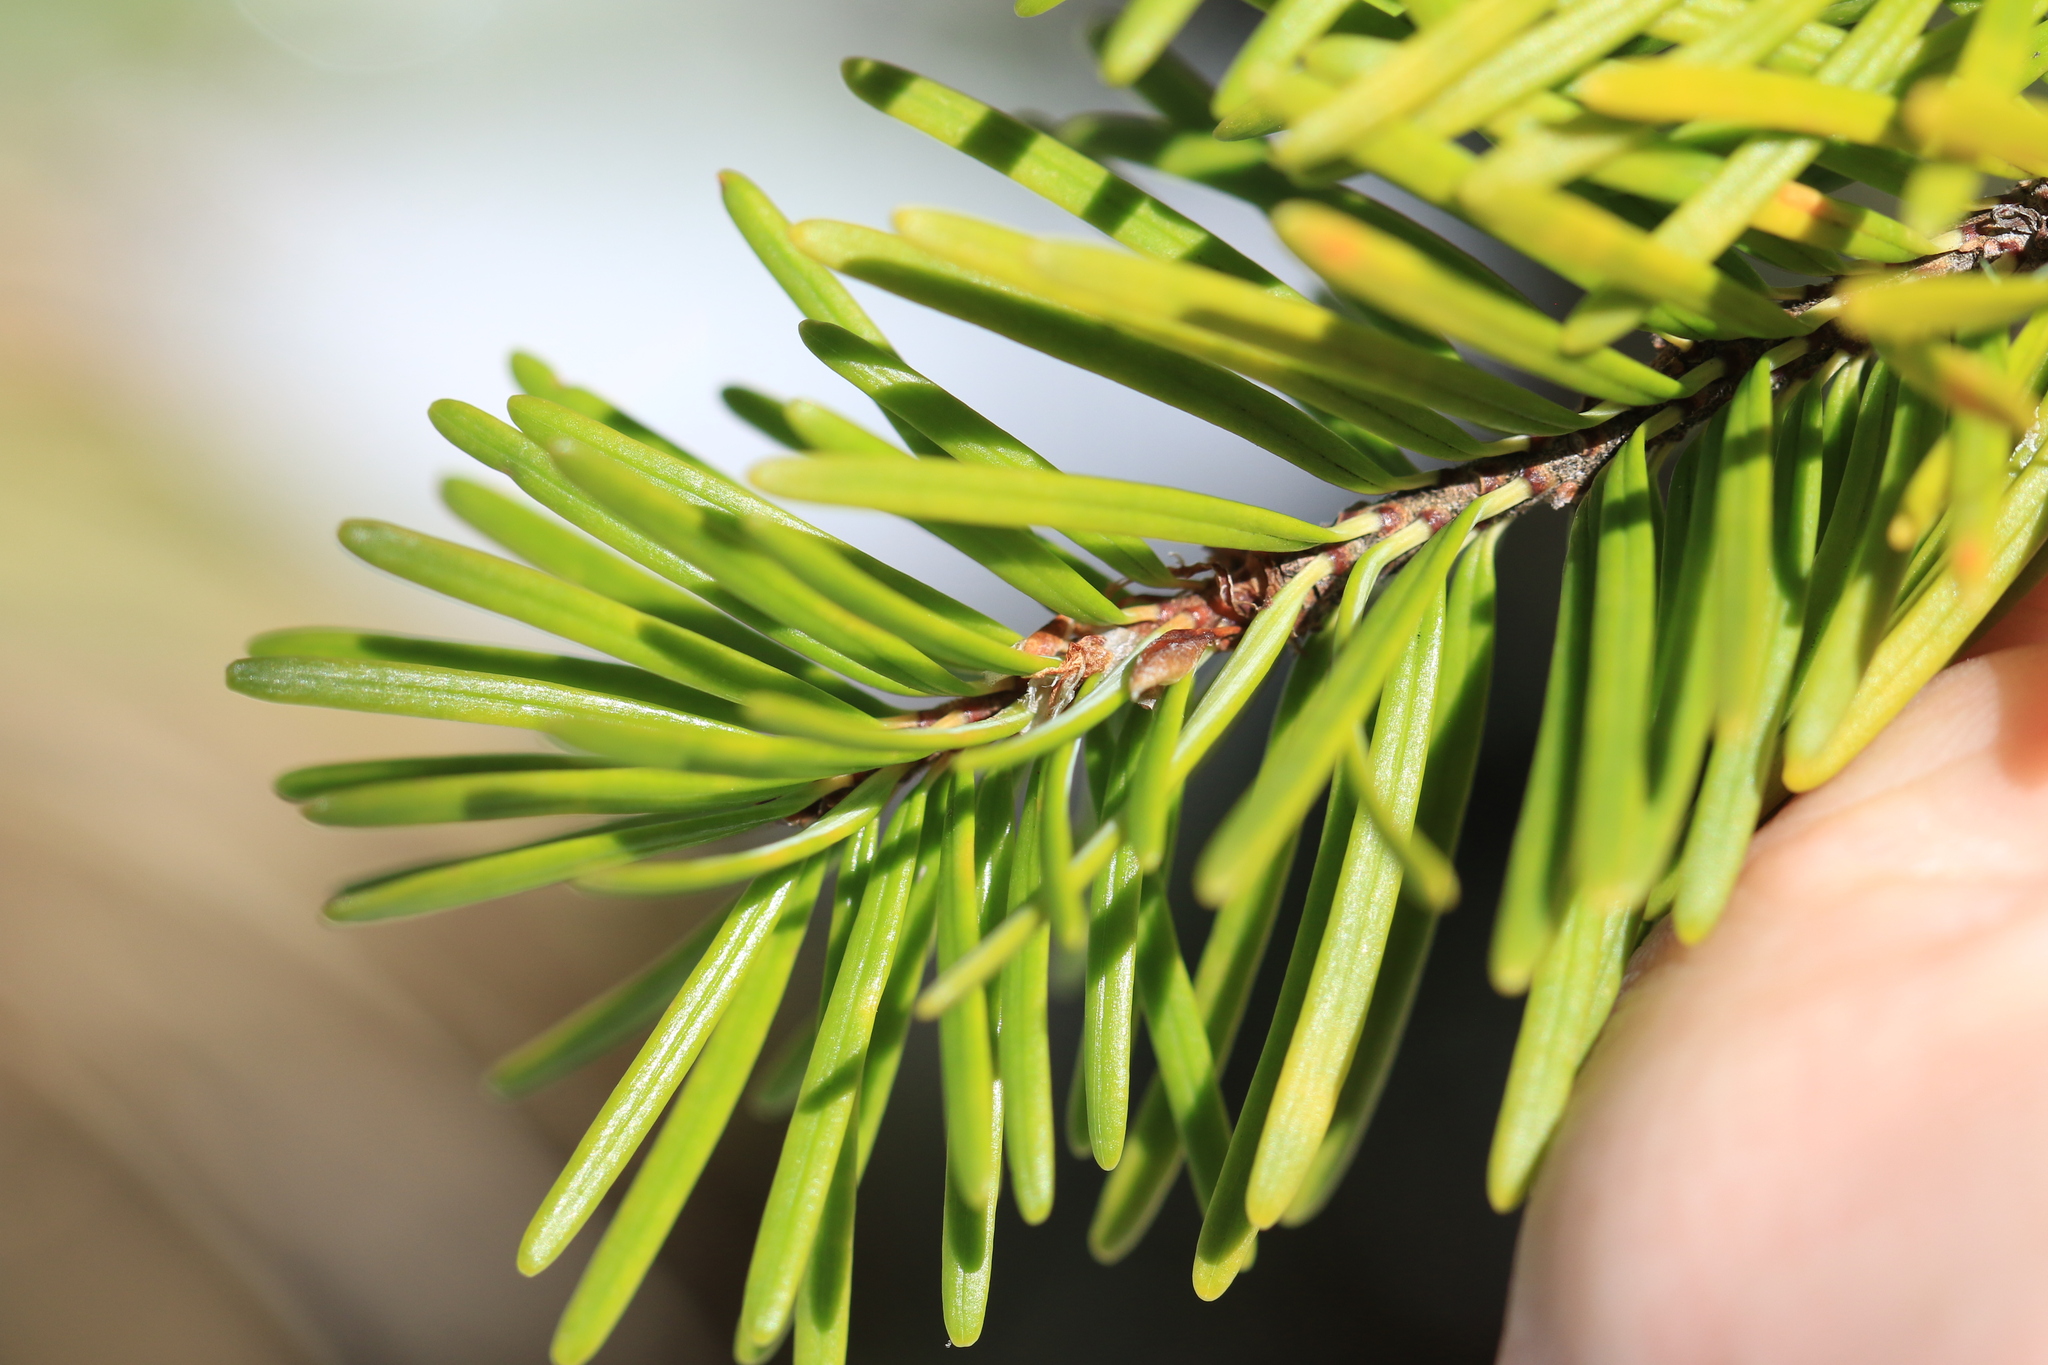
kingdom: Plantae
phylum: Tracheophyta
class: Pinopsida
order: Pinales
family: Pinaceae
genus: Pseudotsuga
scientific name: Pseudotsuga menziesii
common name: Douglas fir
